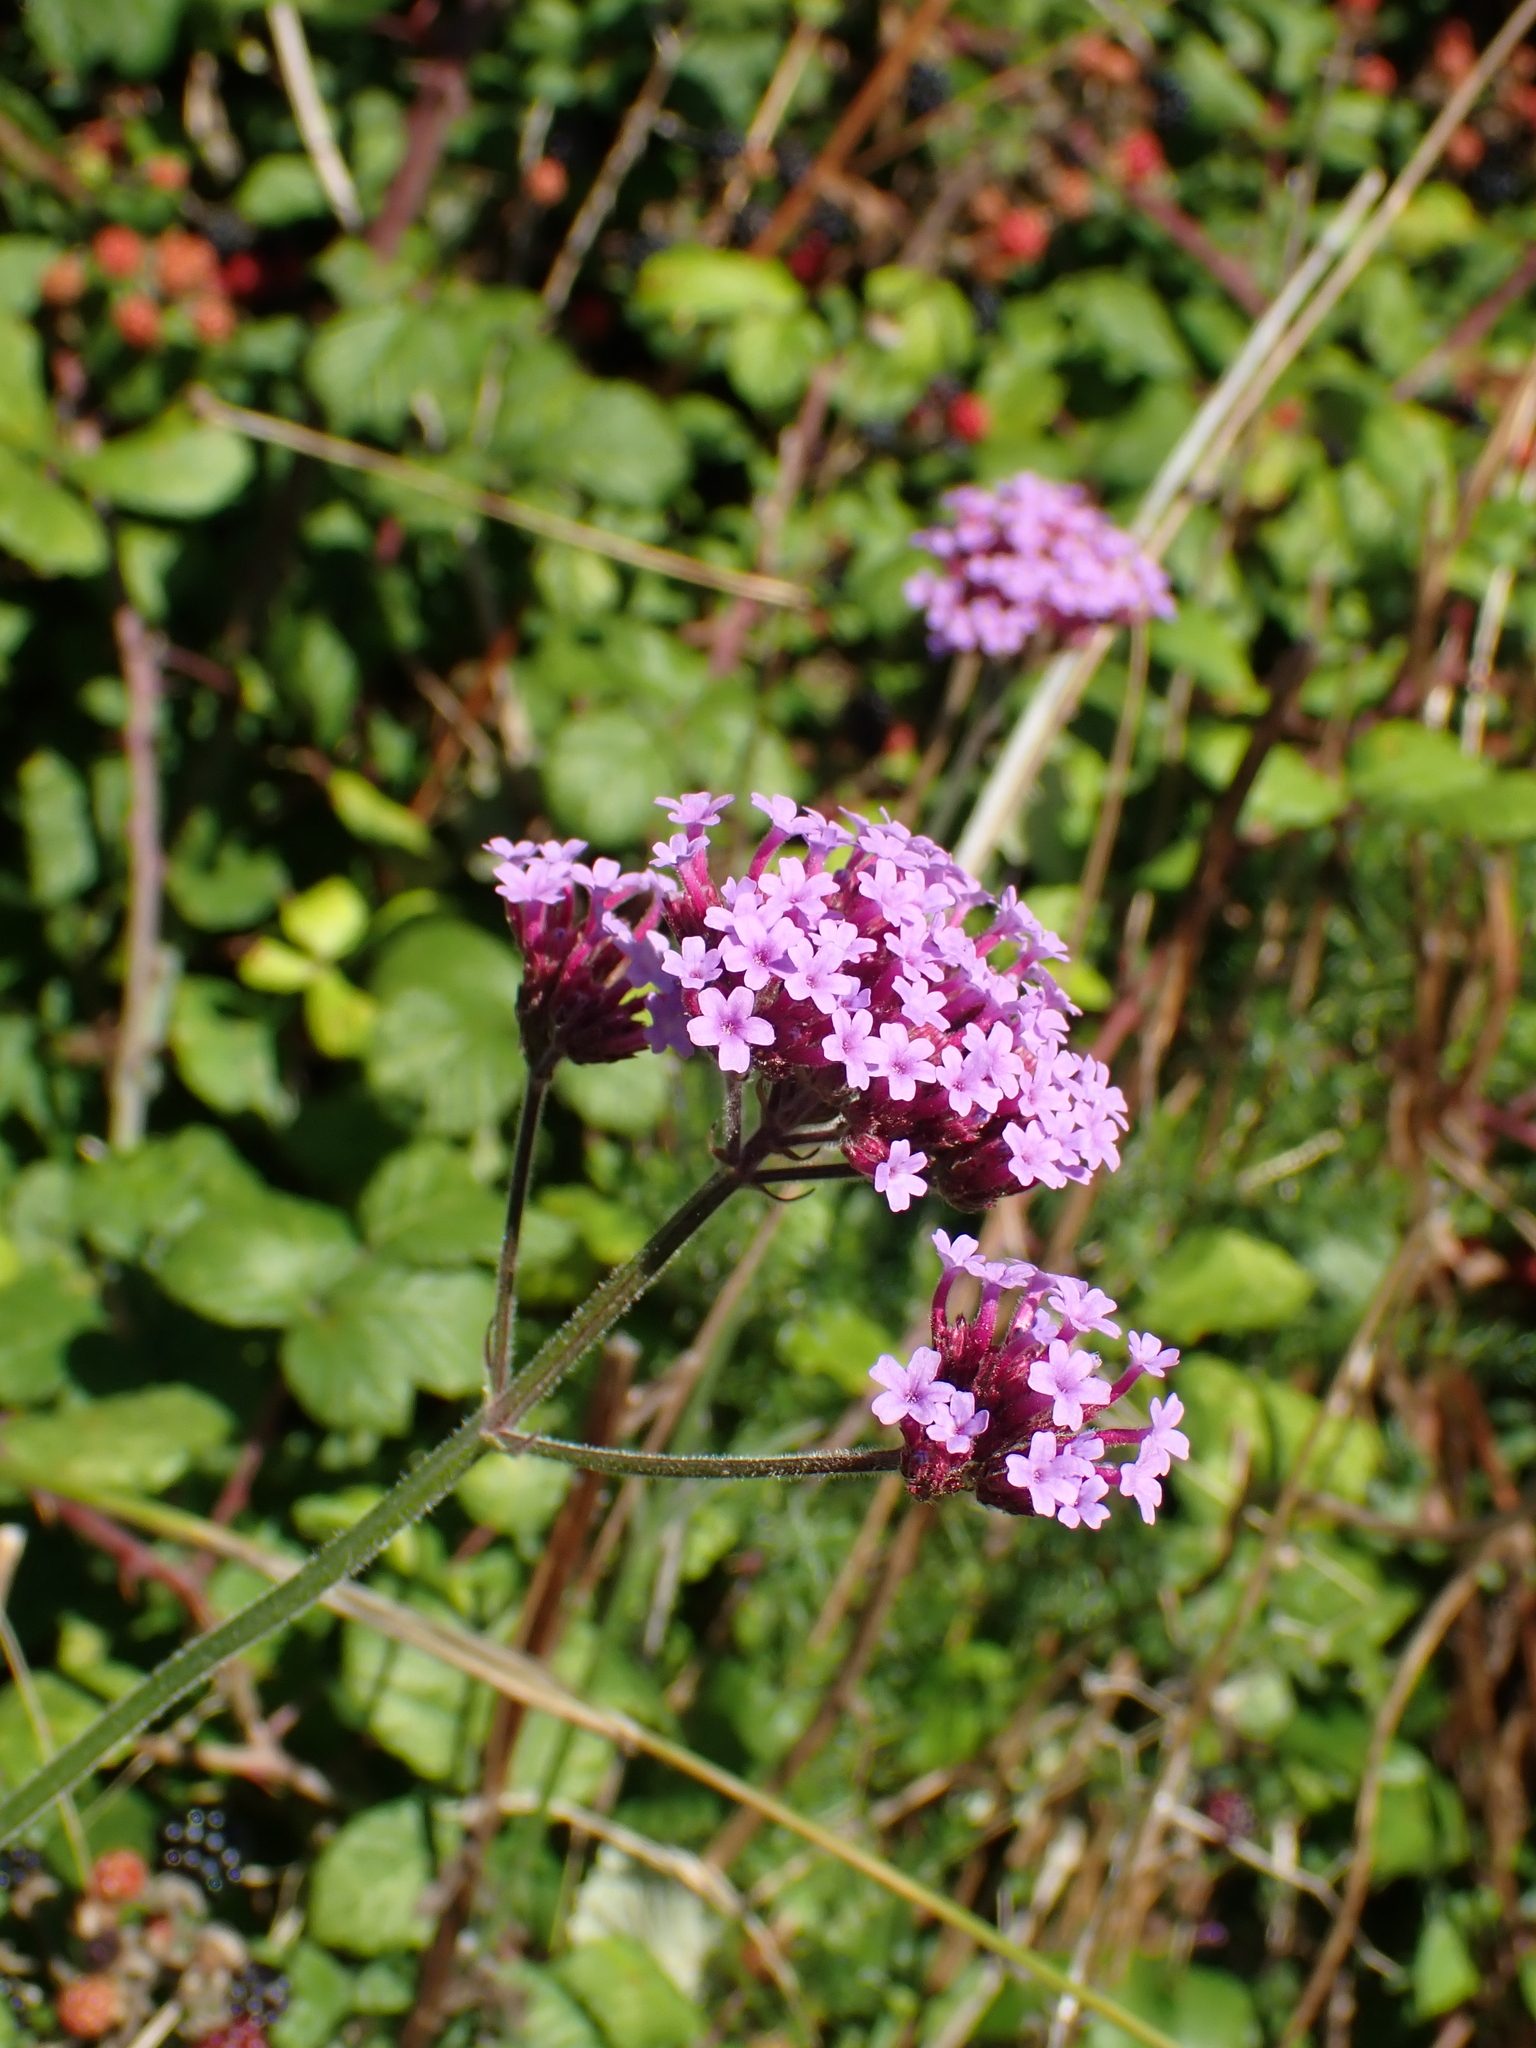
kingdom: Plantae
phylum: Tracheophyta
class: Magnoliopsida
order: Lamiales
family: Verbenaceae
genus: Verbena
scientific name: Verbena bonariensis
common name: Purpletop vervain
